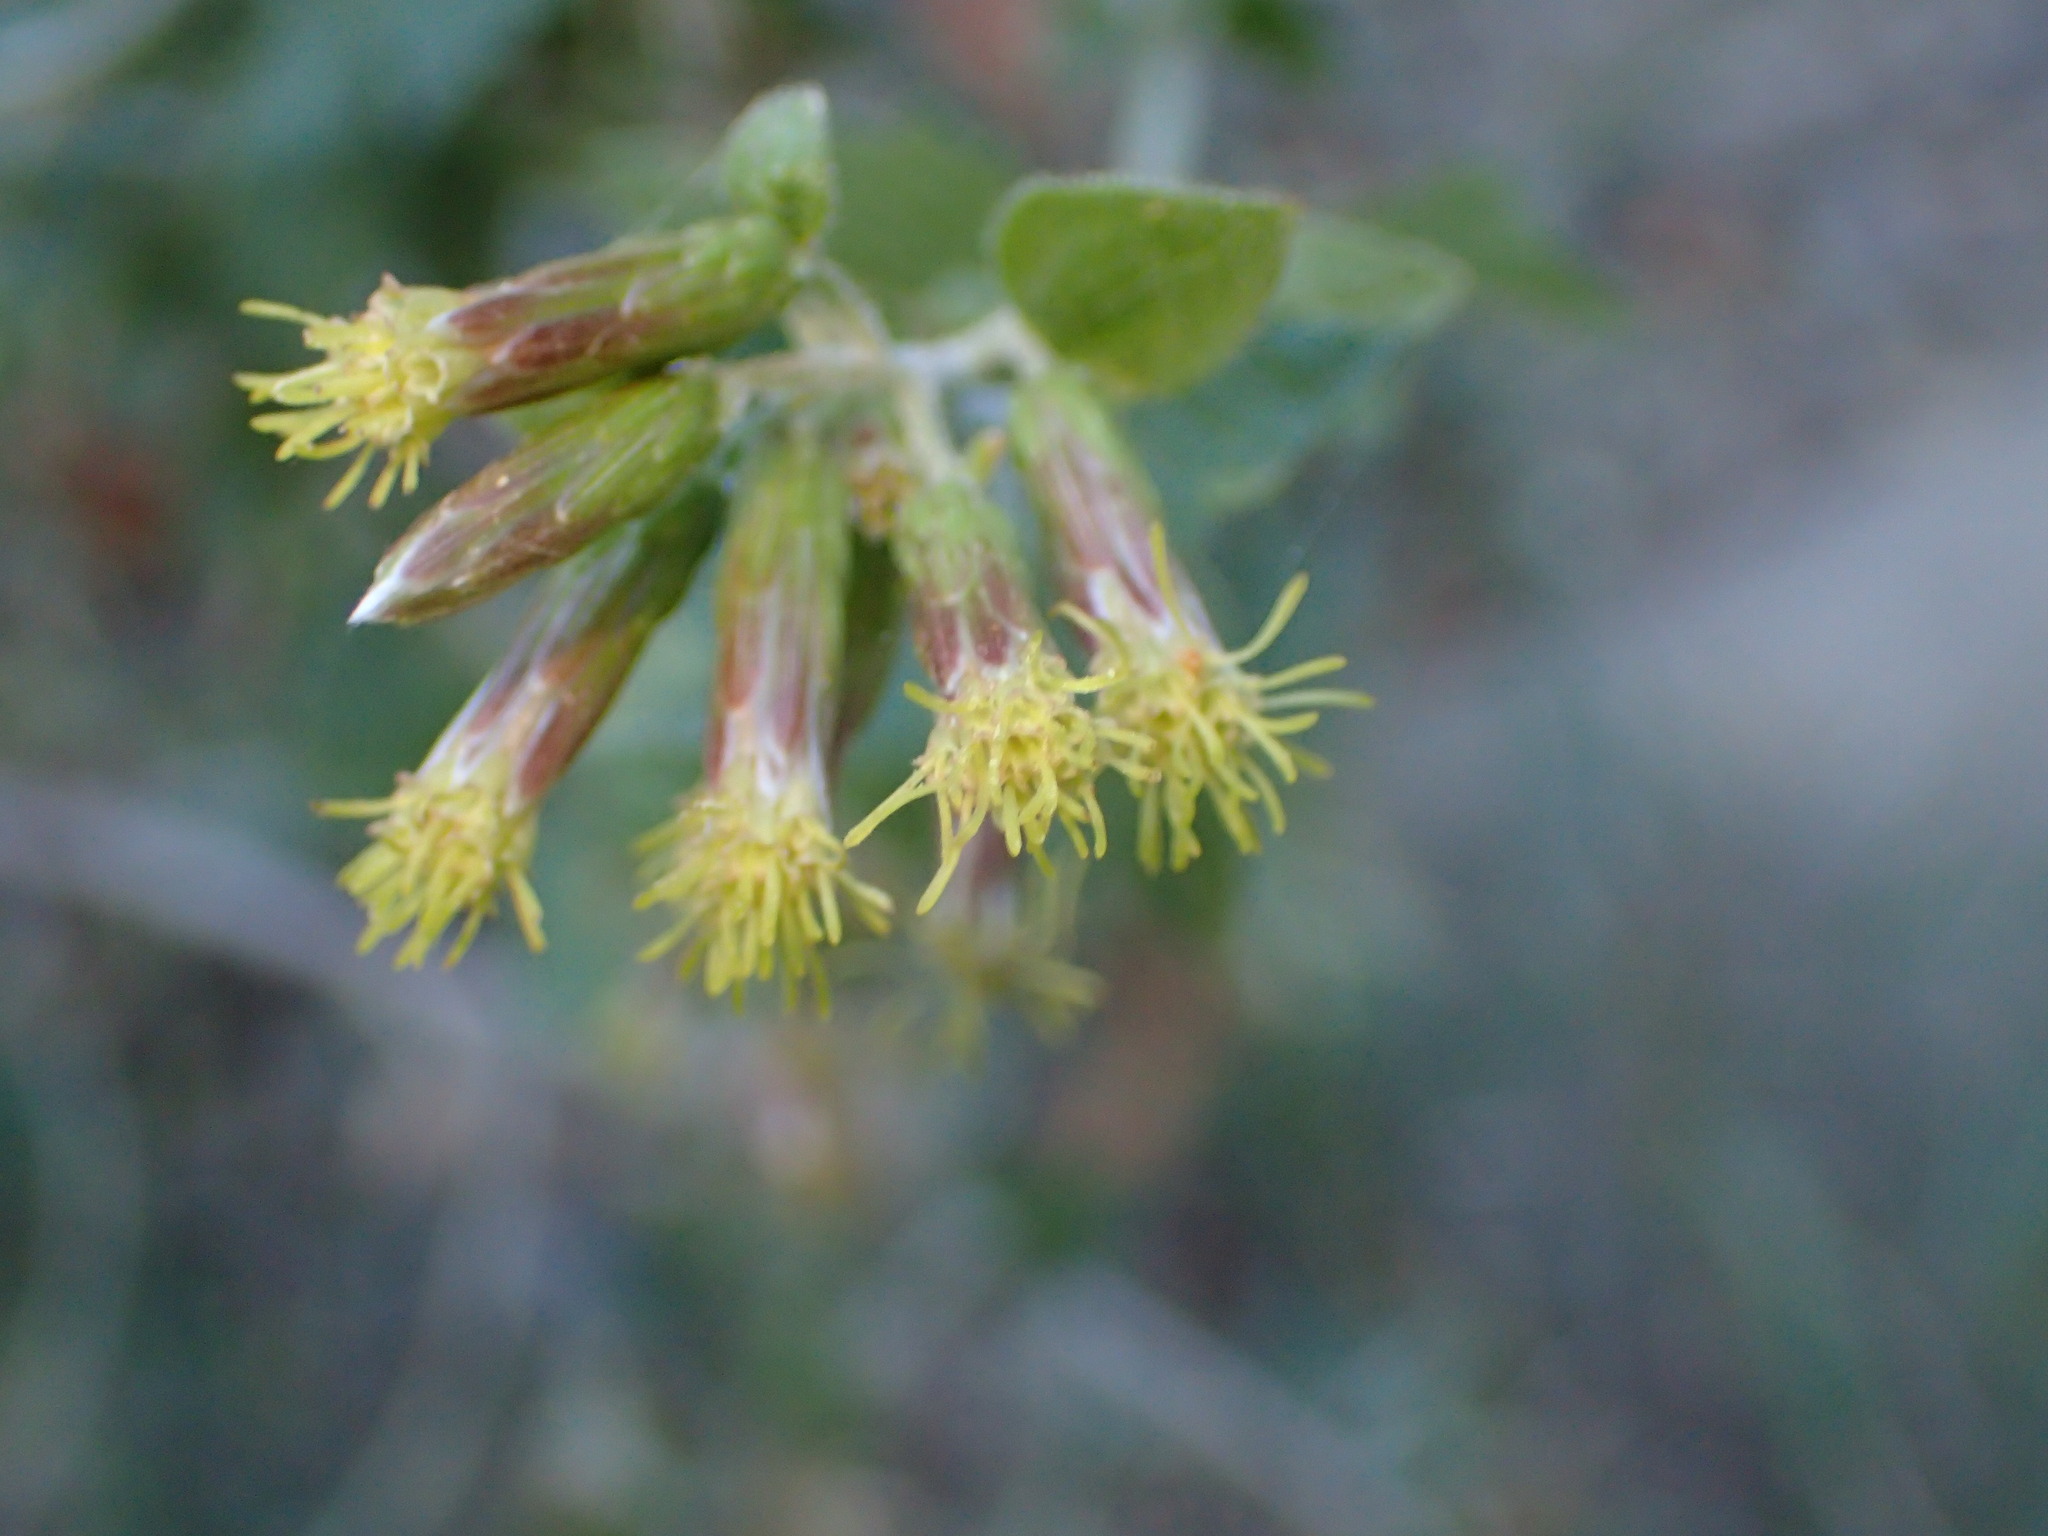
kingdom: Plantae
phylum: Tracheophyta
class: Magnoliopsida
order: Asterales
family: Asteraceae
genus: Brickellia
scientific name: Brickellia californica
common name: California brickellbush
